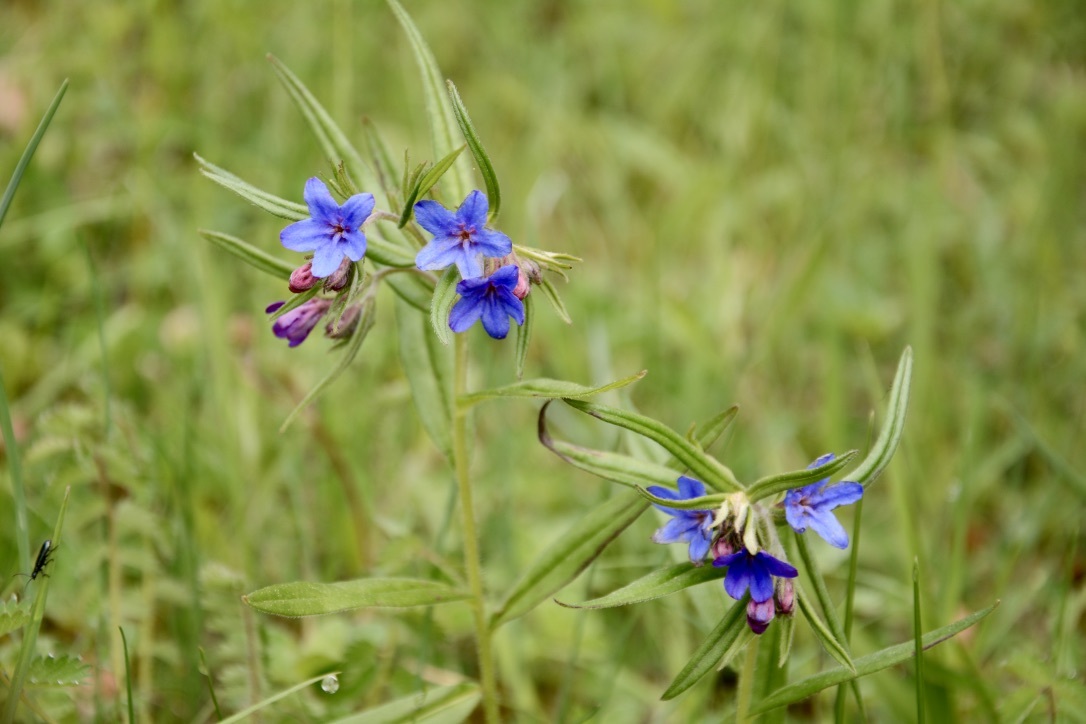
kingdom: Plantae
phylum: Tracheophyta
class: Magnoliopsida
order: Boraginales
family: Boraginaceae
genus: Aegonychon
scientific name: Aegonychon purpurocaeruleum
